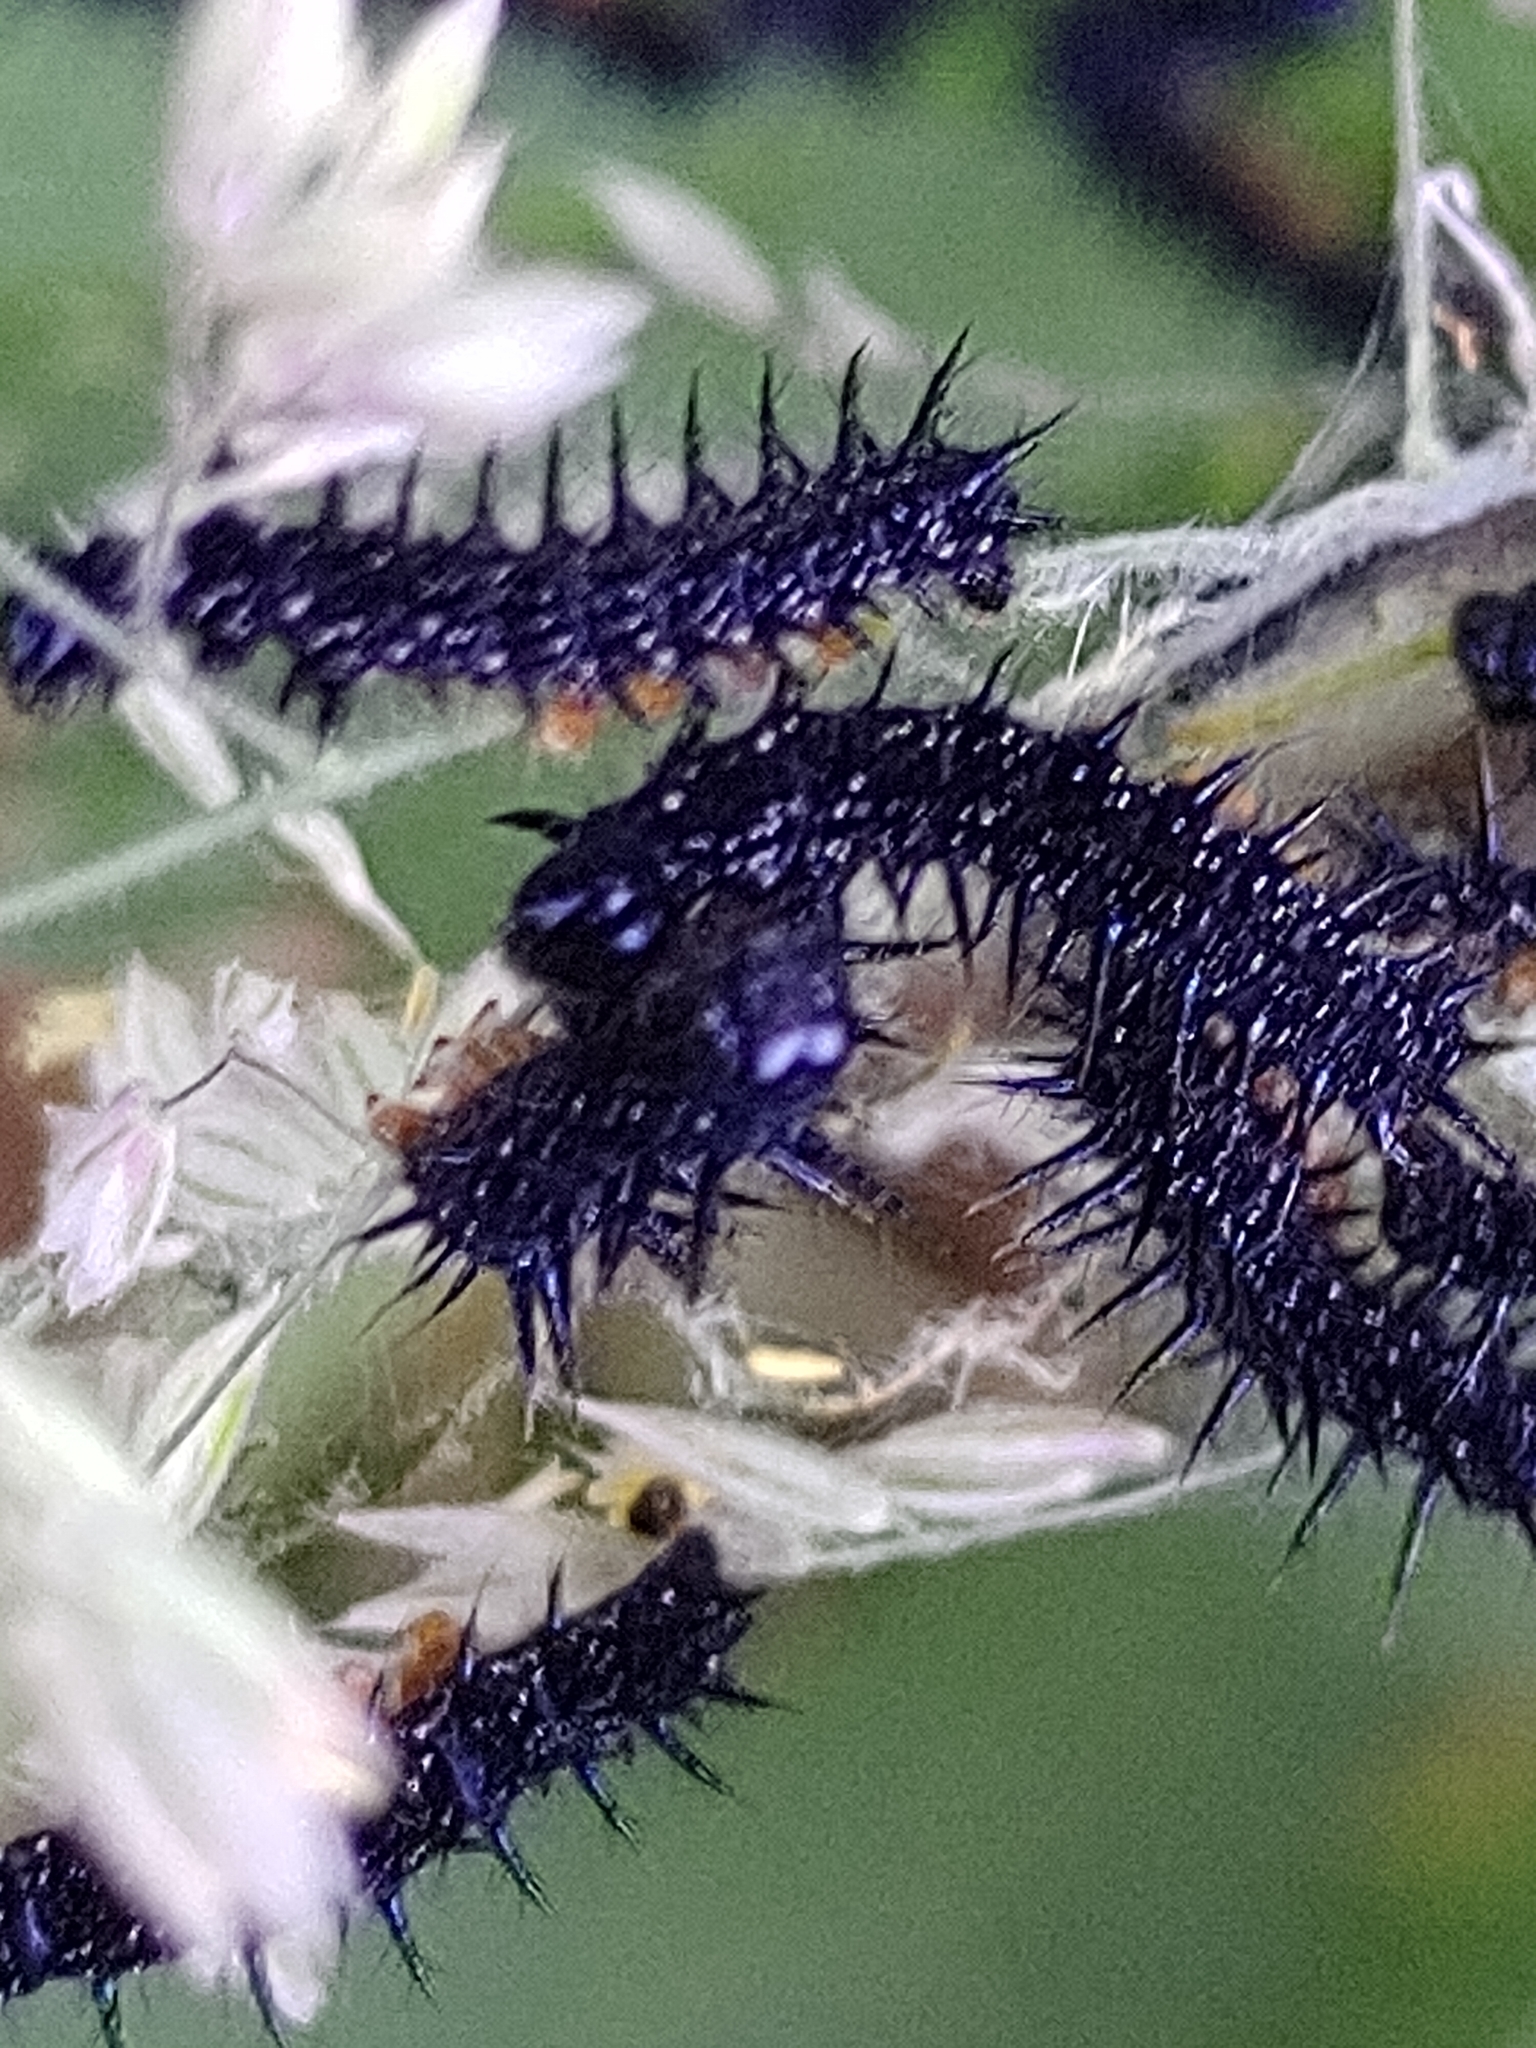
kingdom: Animalia
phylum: Arthropoda
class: Insecta
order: Lepidoptera
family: Nymphalidae
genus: Aglais
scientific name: Aglais io
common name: Peacock
